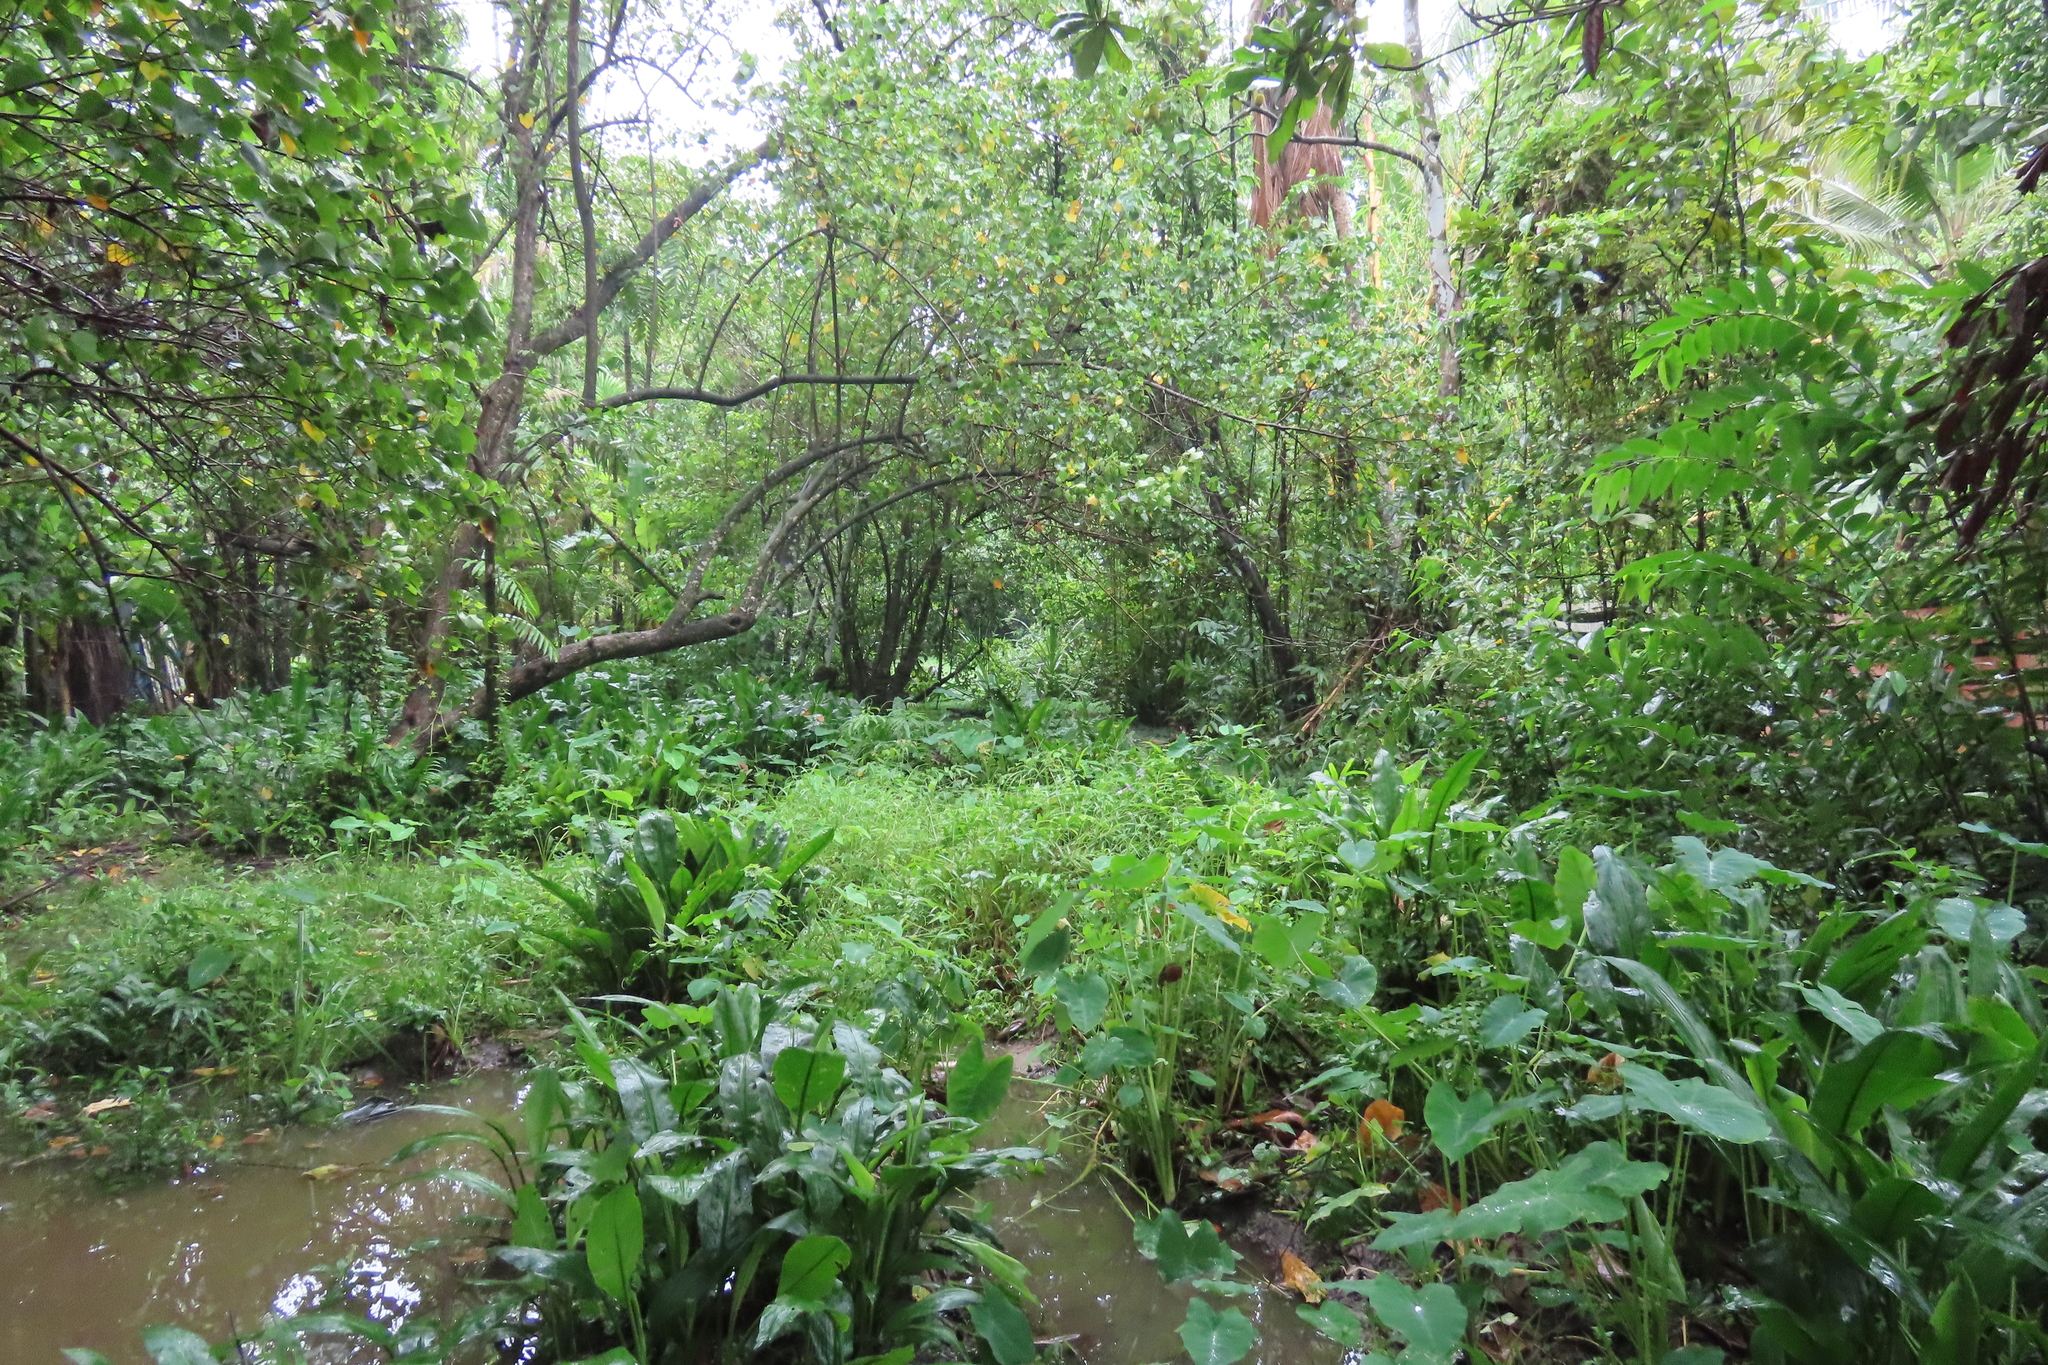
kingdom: Plantae
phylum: Tracheophyta
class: Liliopsida
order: Alismatales
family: Araceae
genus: Colocasia
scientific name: Colocasia esculenta
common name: Taro
